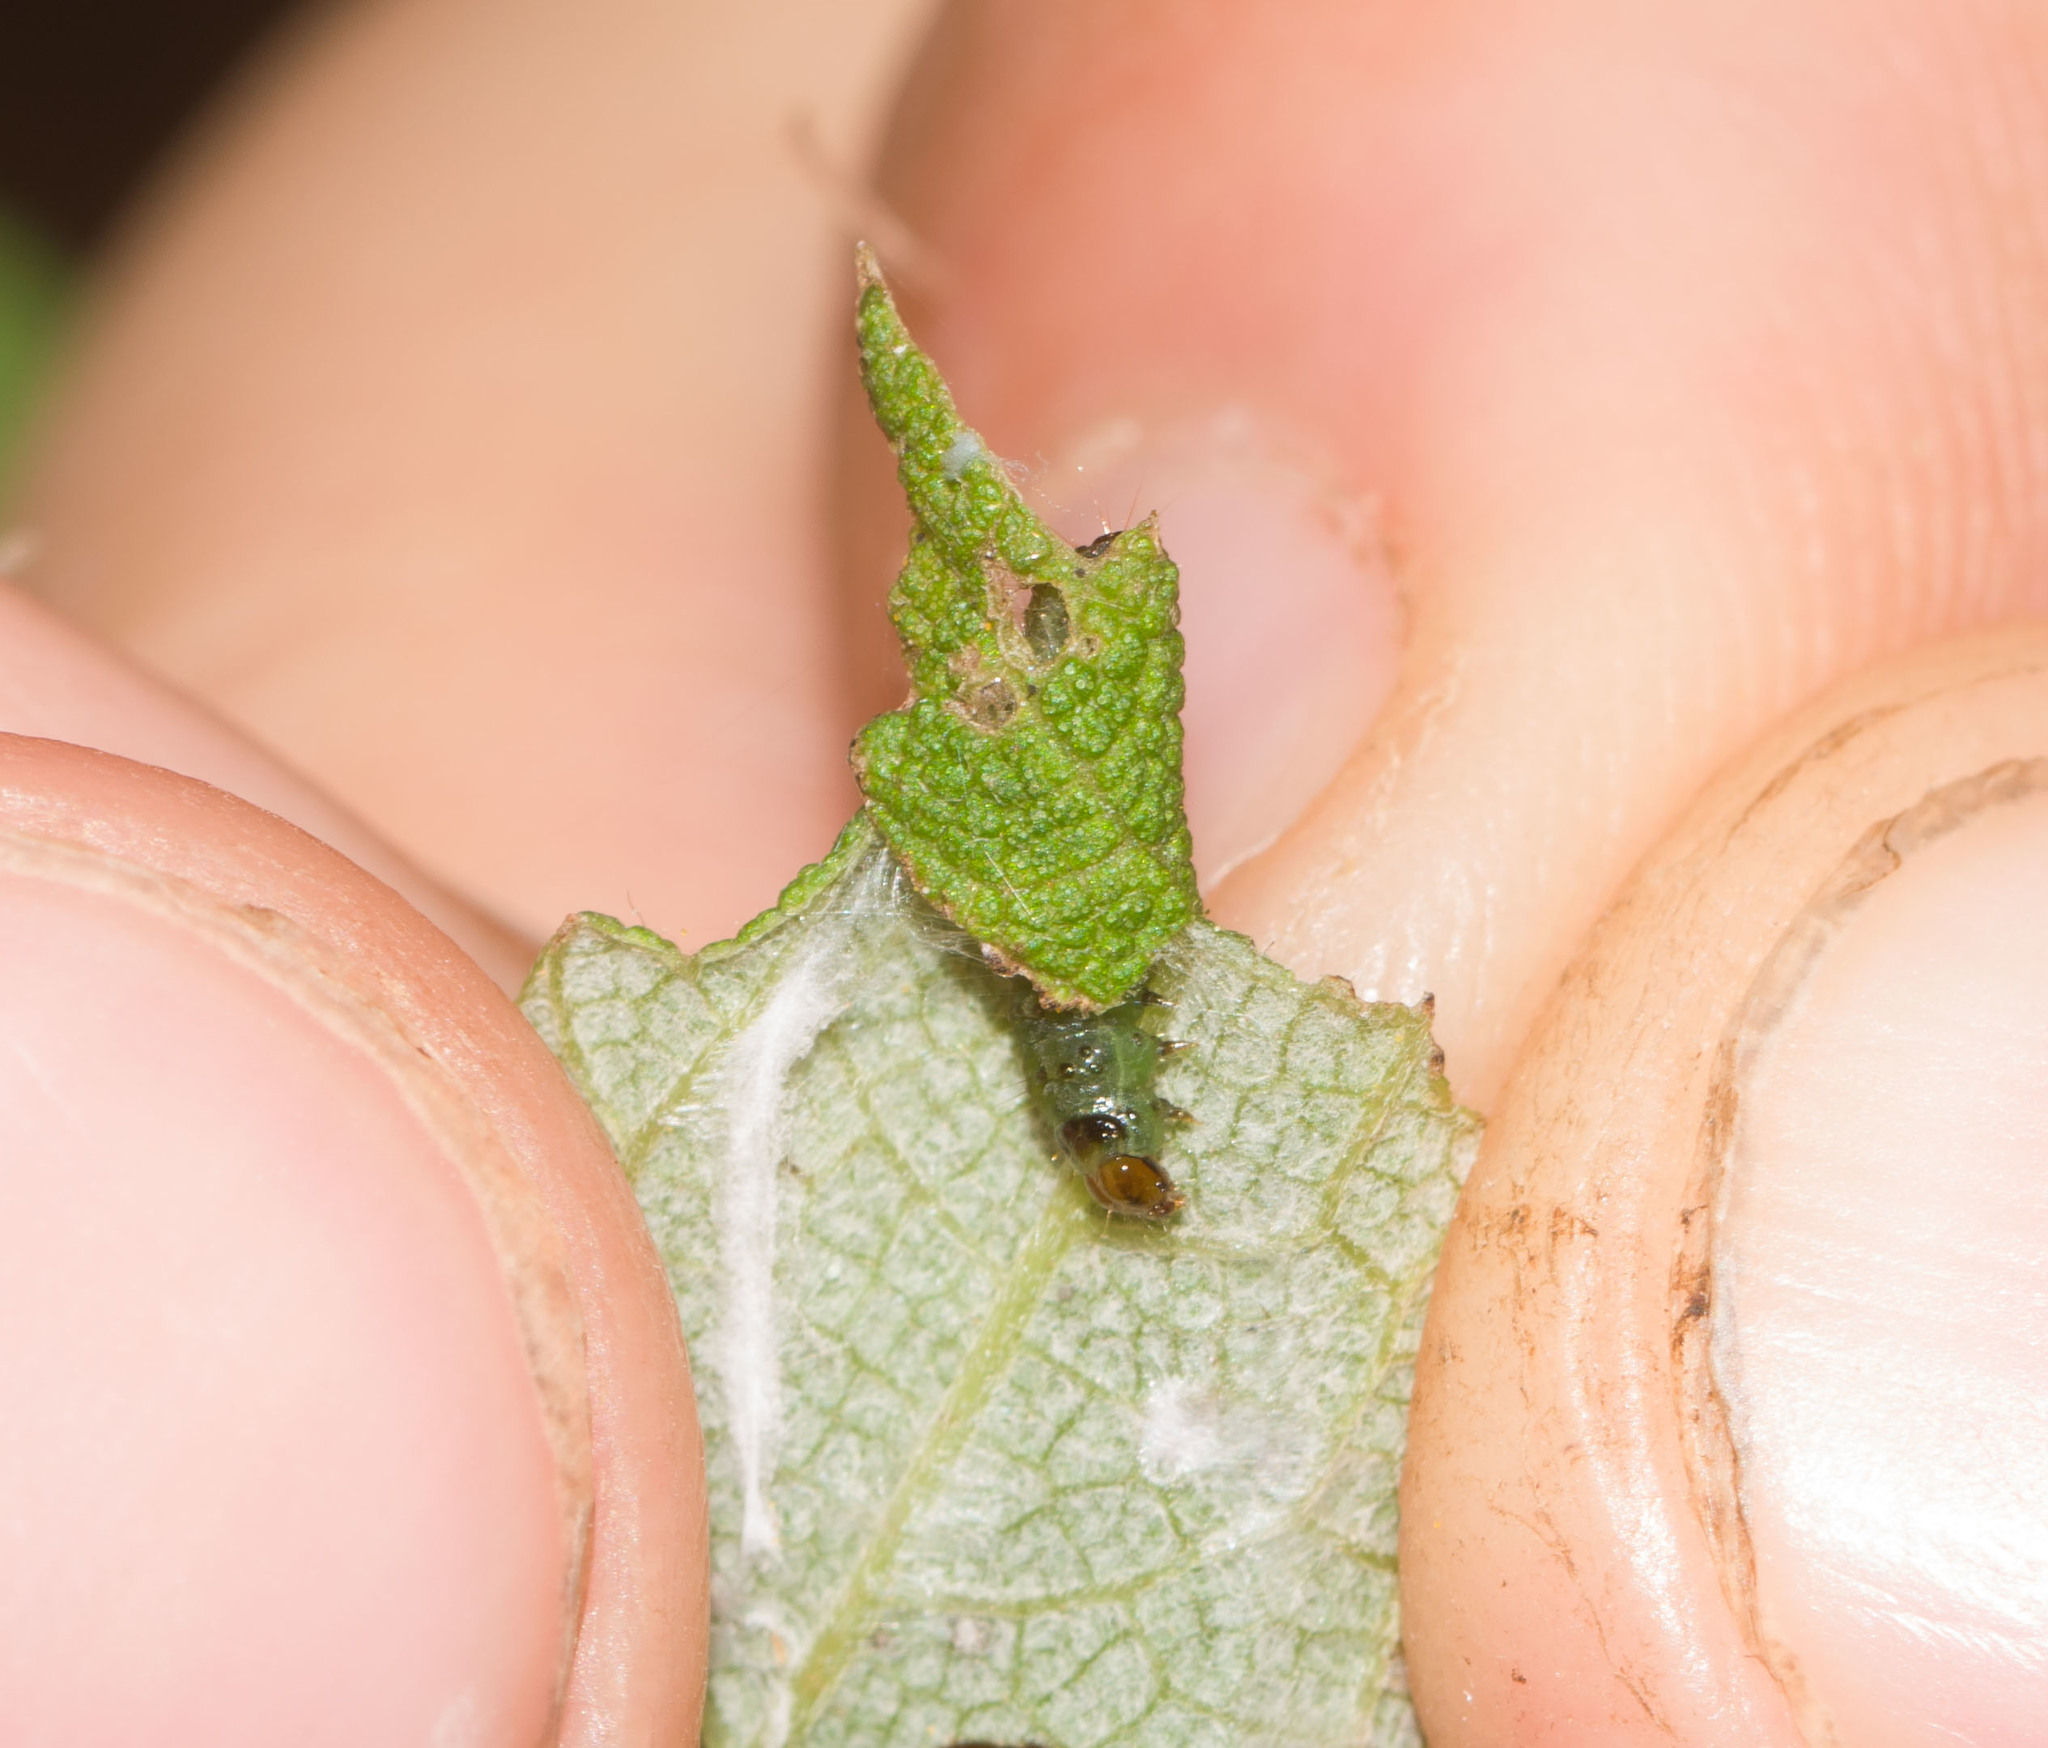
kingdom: Animalia
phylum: Arthropoda
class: Insecta
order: Lepidoptera
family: Tortricidae
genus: Spheterista
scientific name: Spheterista infaustana
